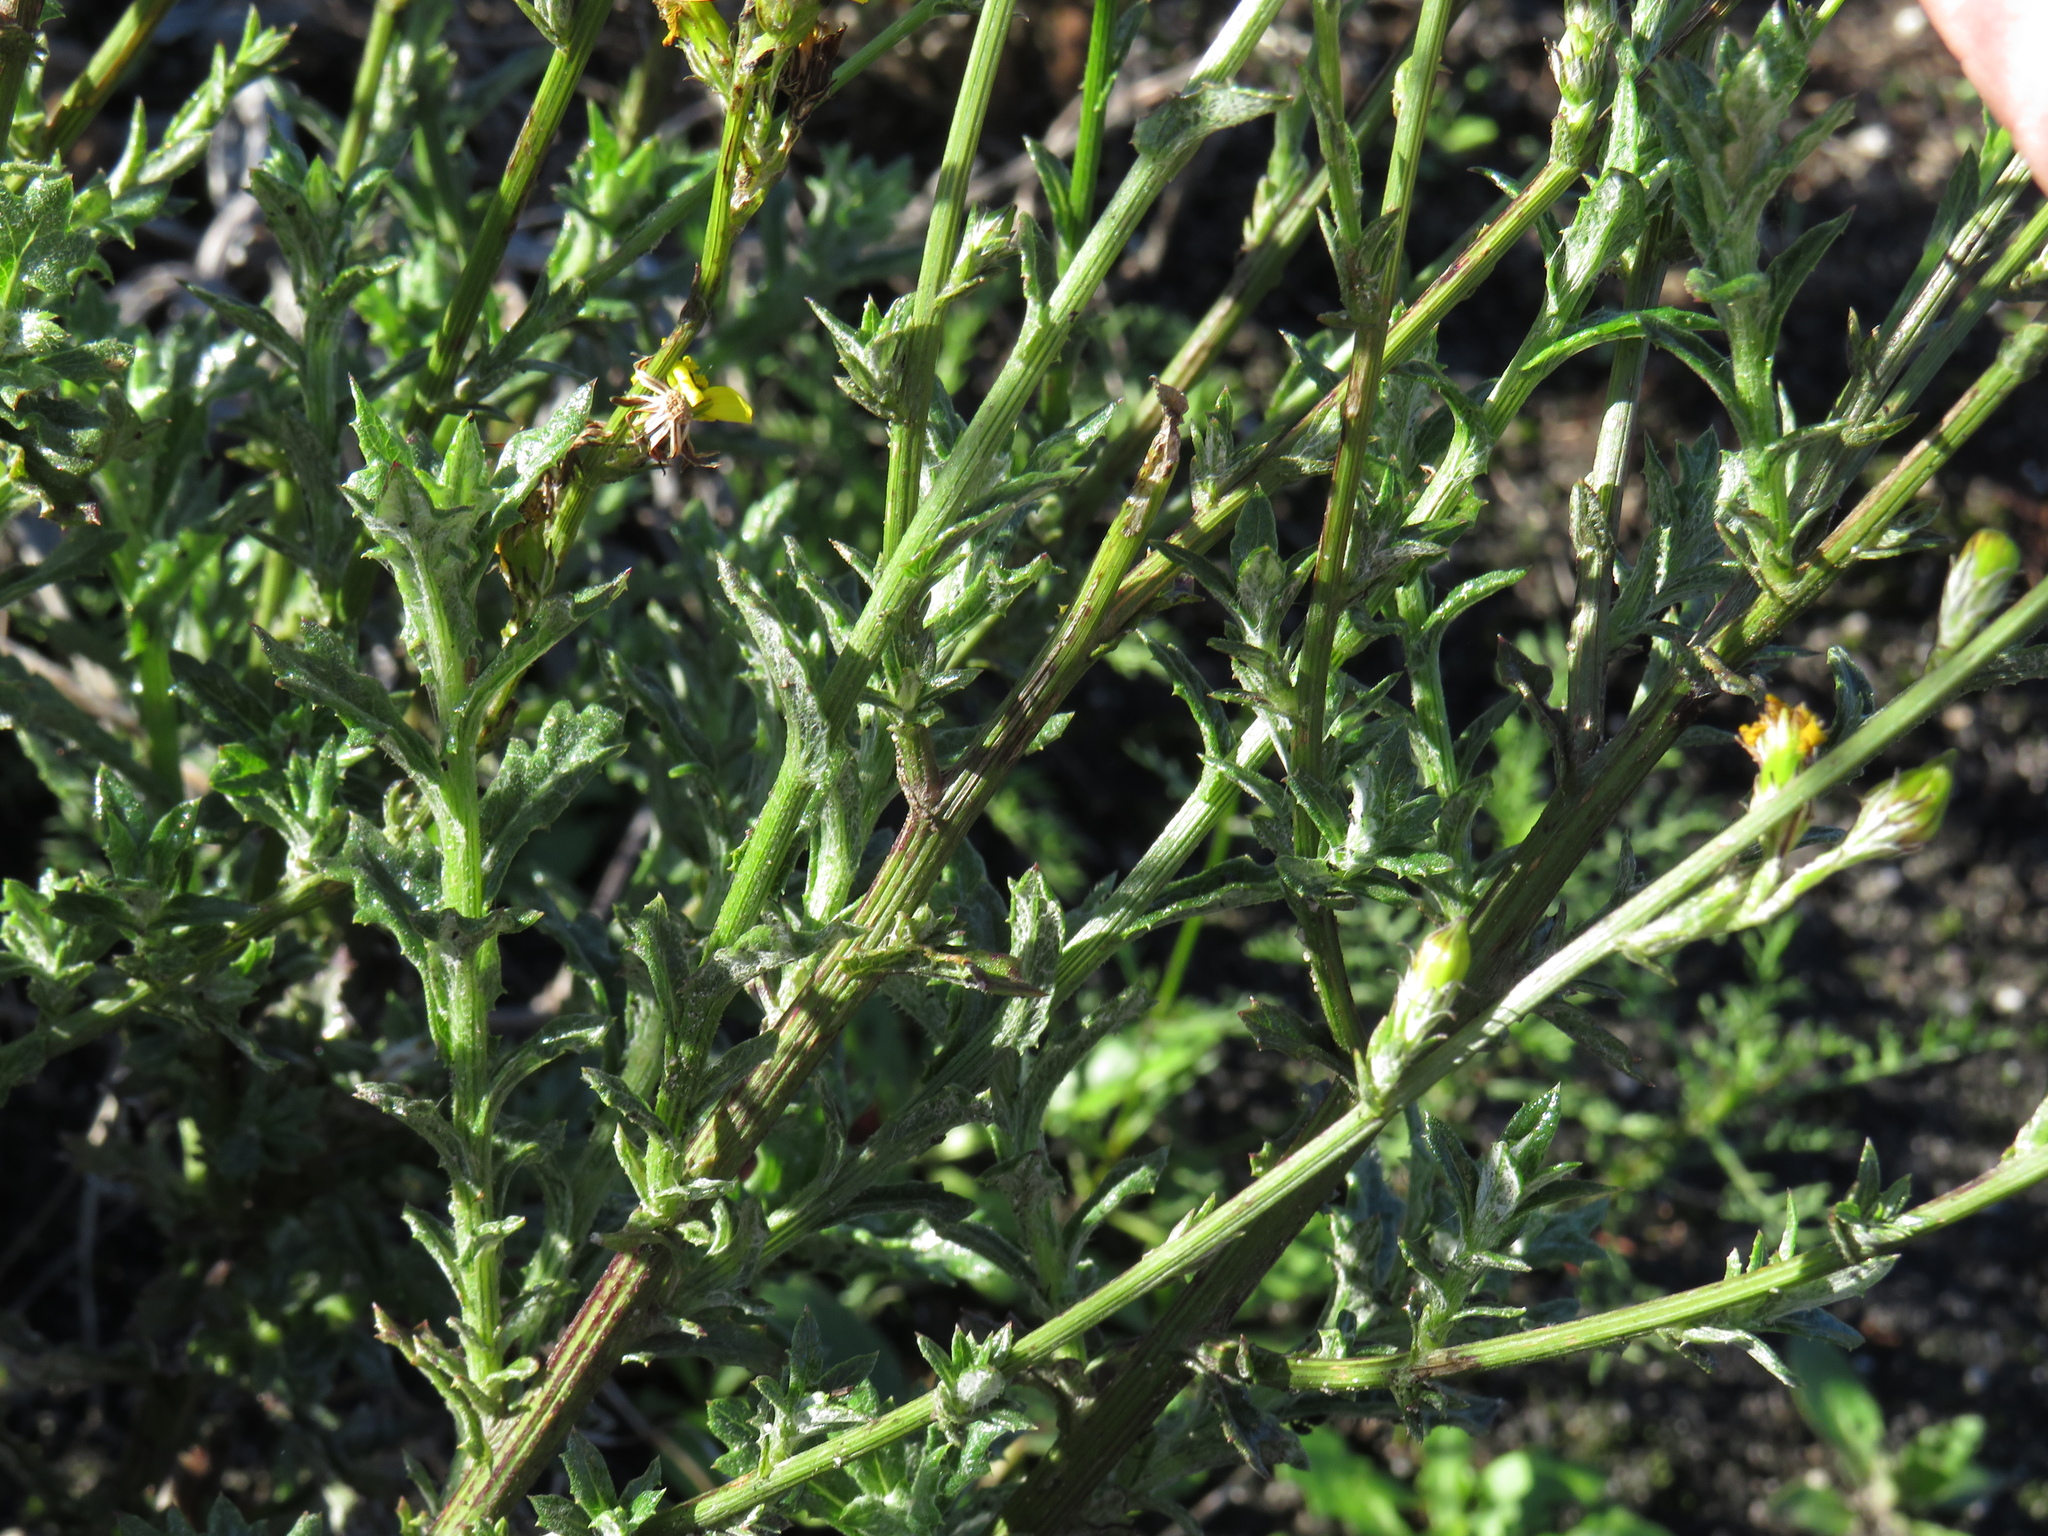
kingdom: Plantae
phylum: Tracheophyta
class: Magnoliopsida
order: Asterales
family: Asteraceae
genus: Senecio
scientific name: Senecio pubigerus
